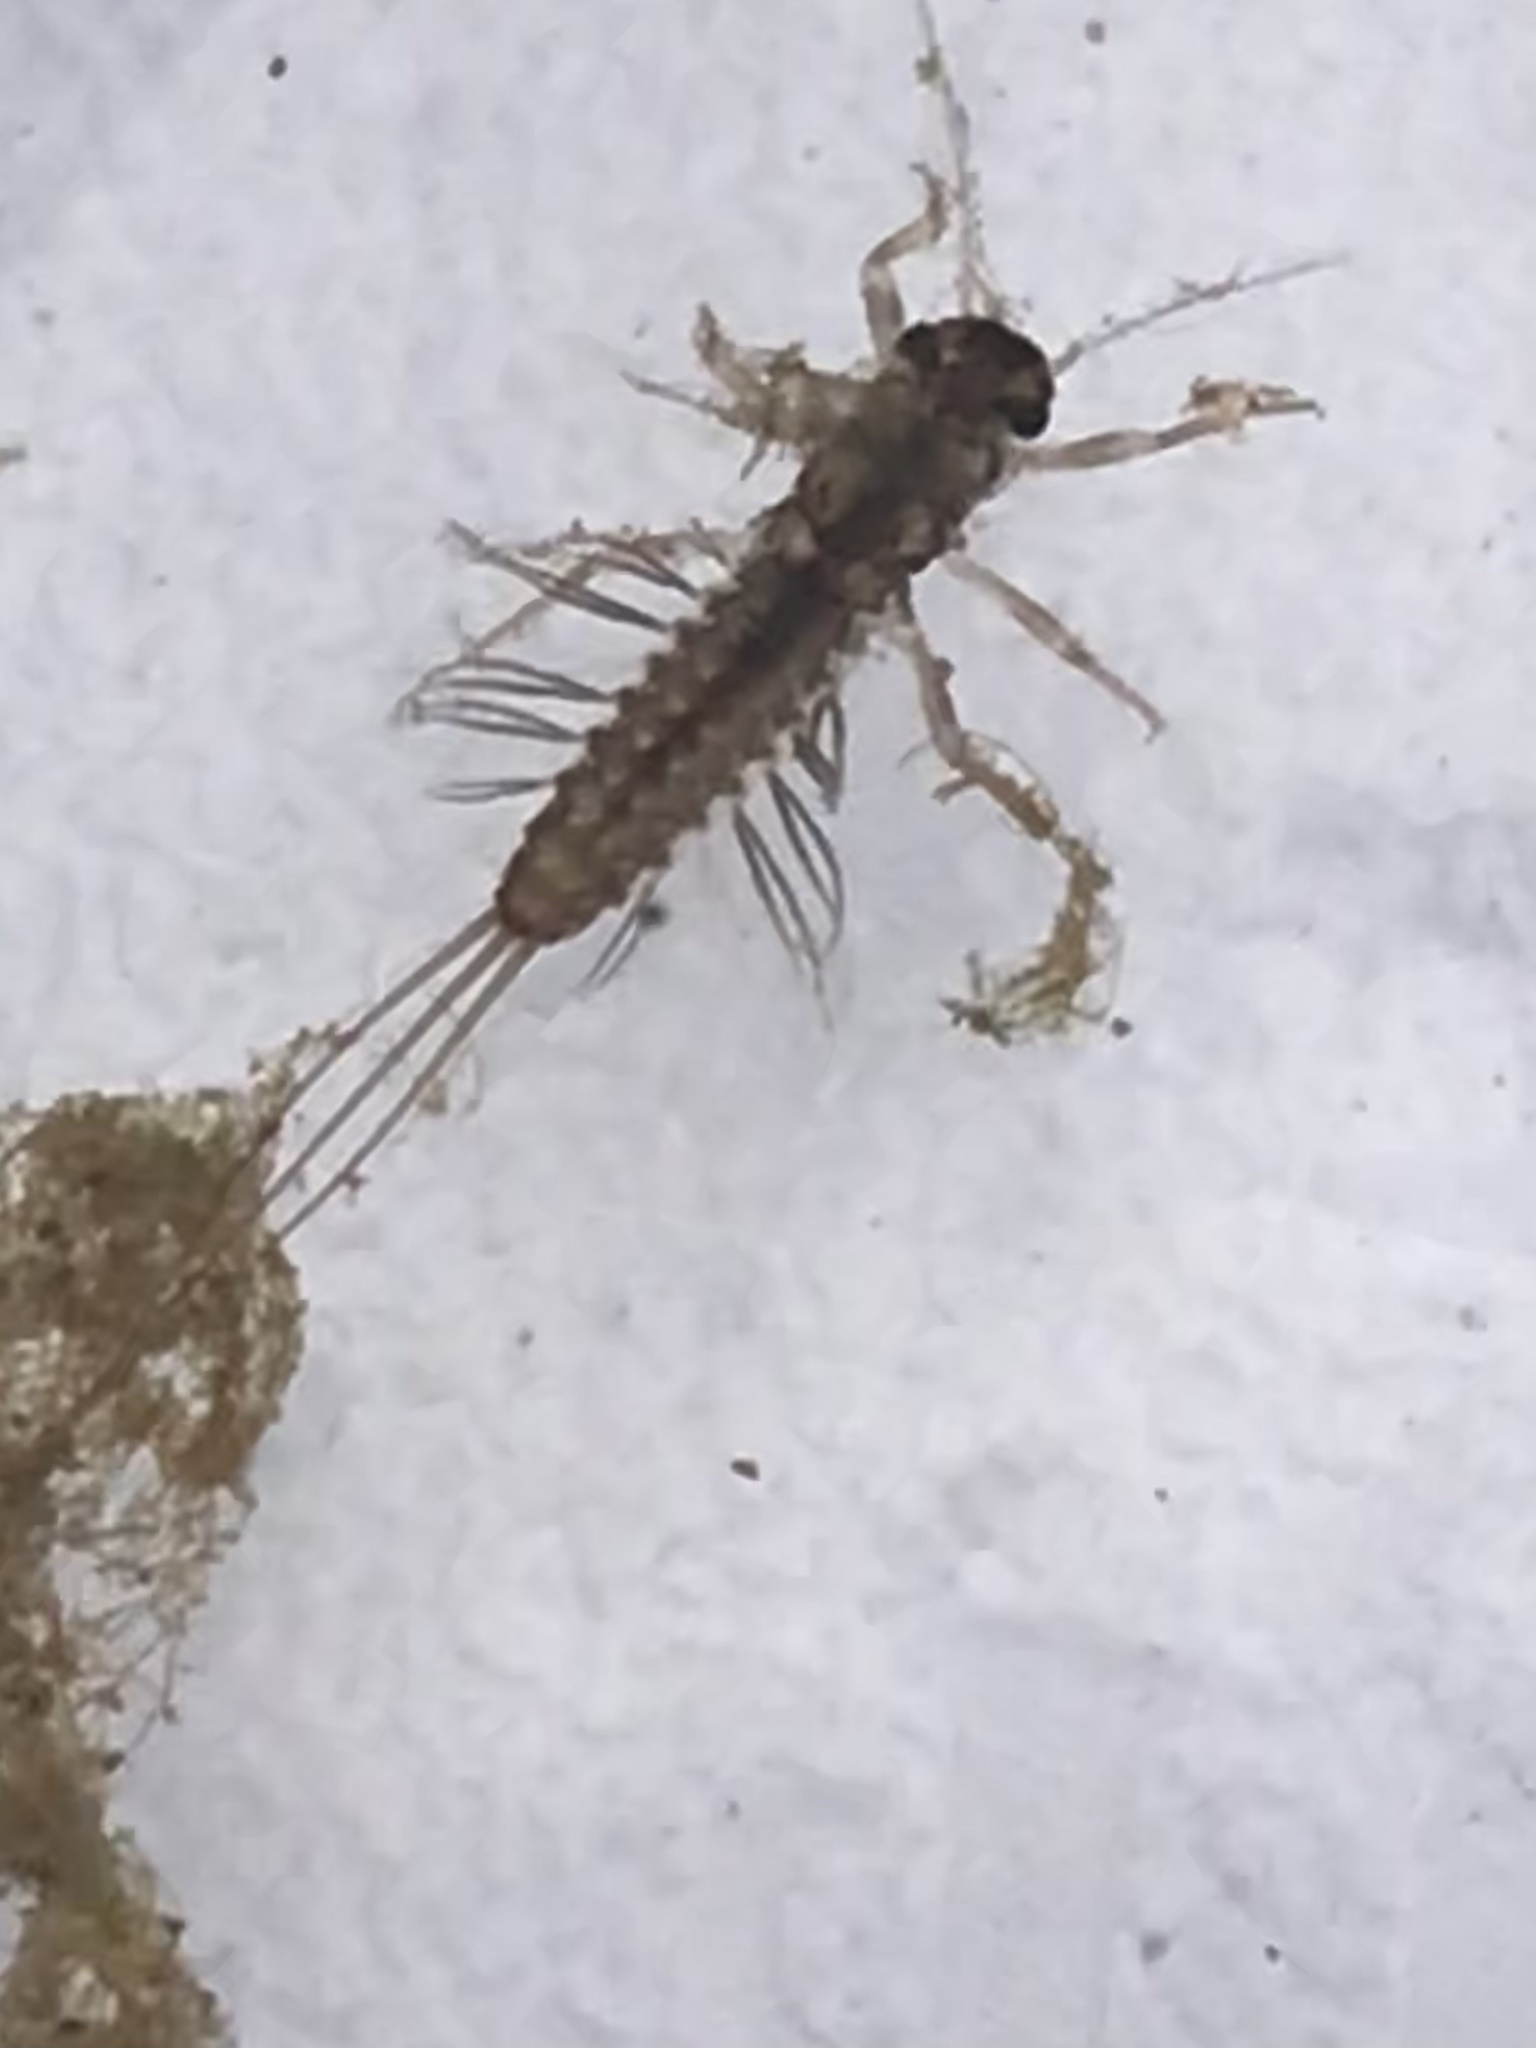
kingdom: Animalia
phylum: Arthropoda
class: Insecta
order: Ephemeroptera
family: Leptophlebiidae
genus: Paraleptophlebia
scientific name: Paraleptophlebia submarginata
